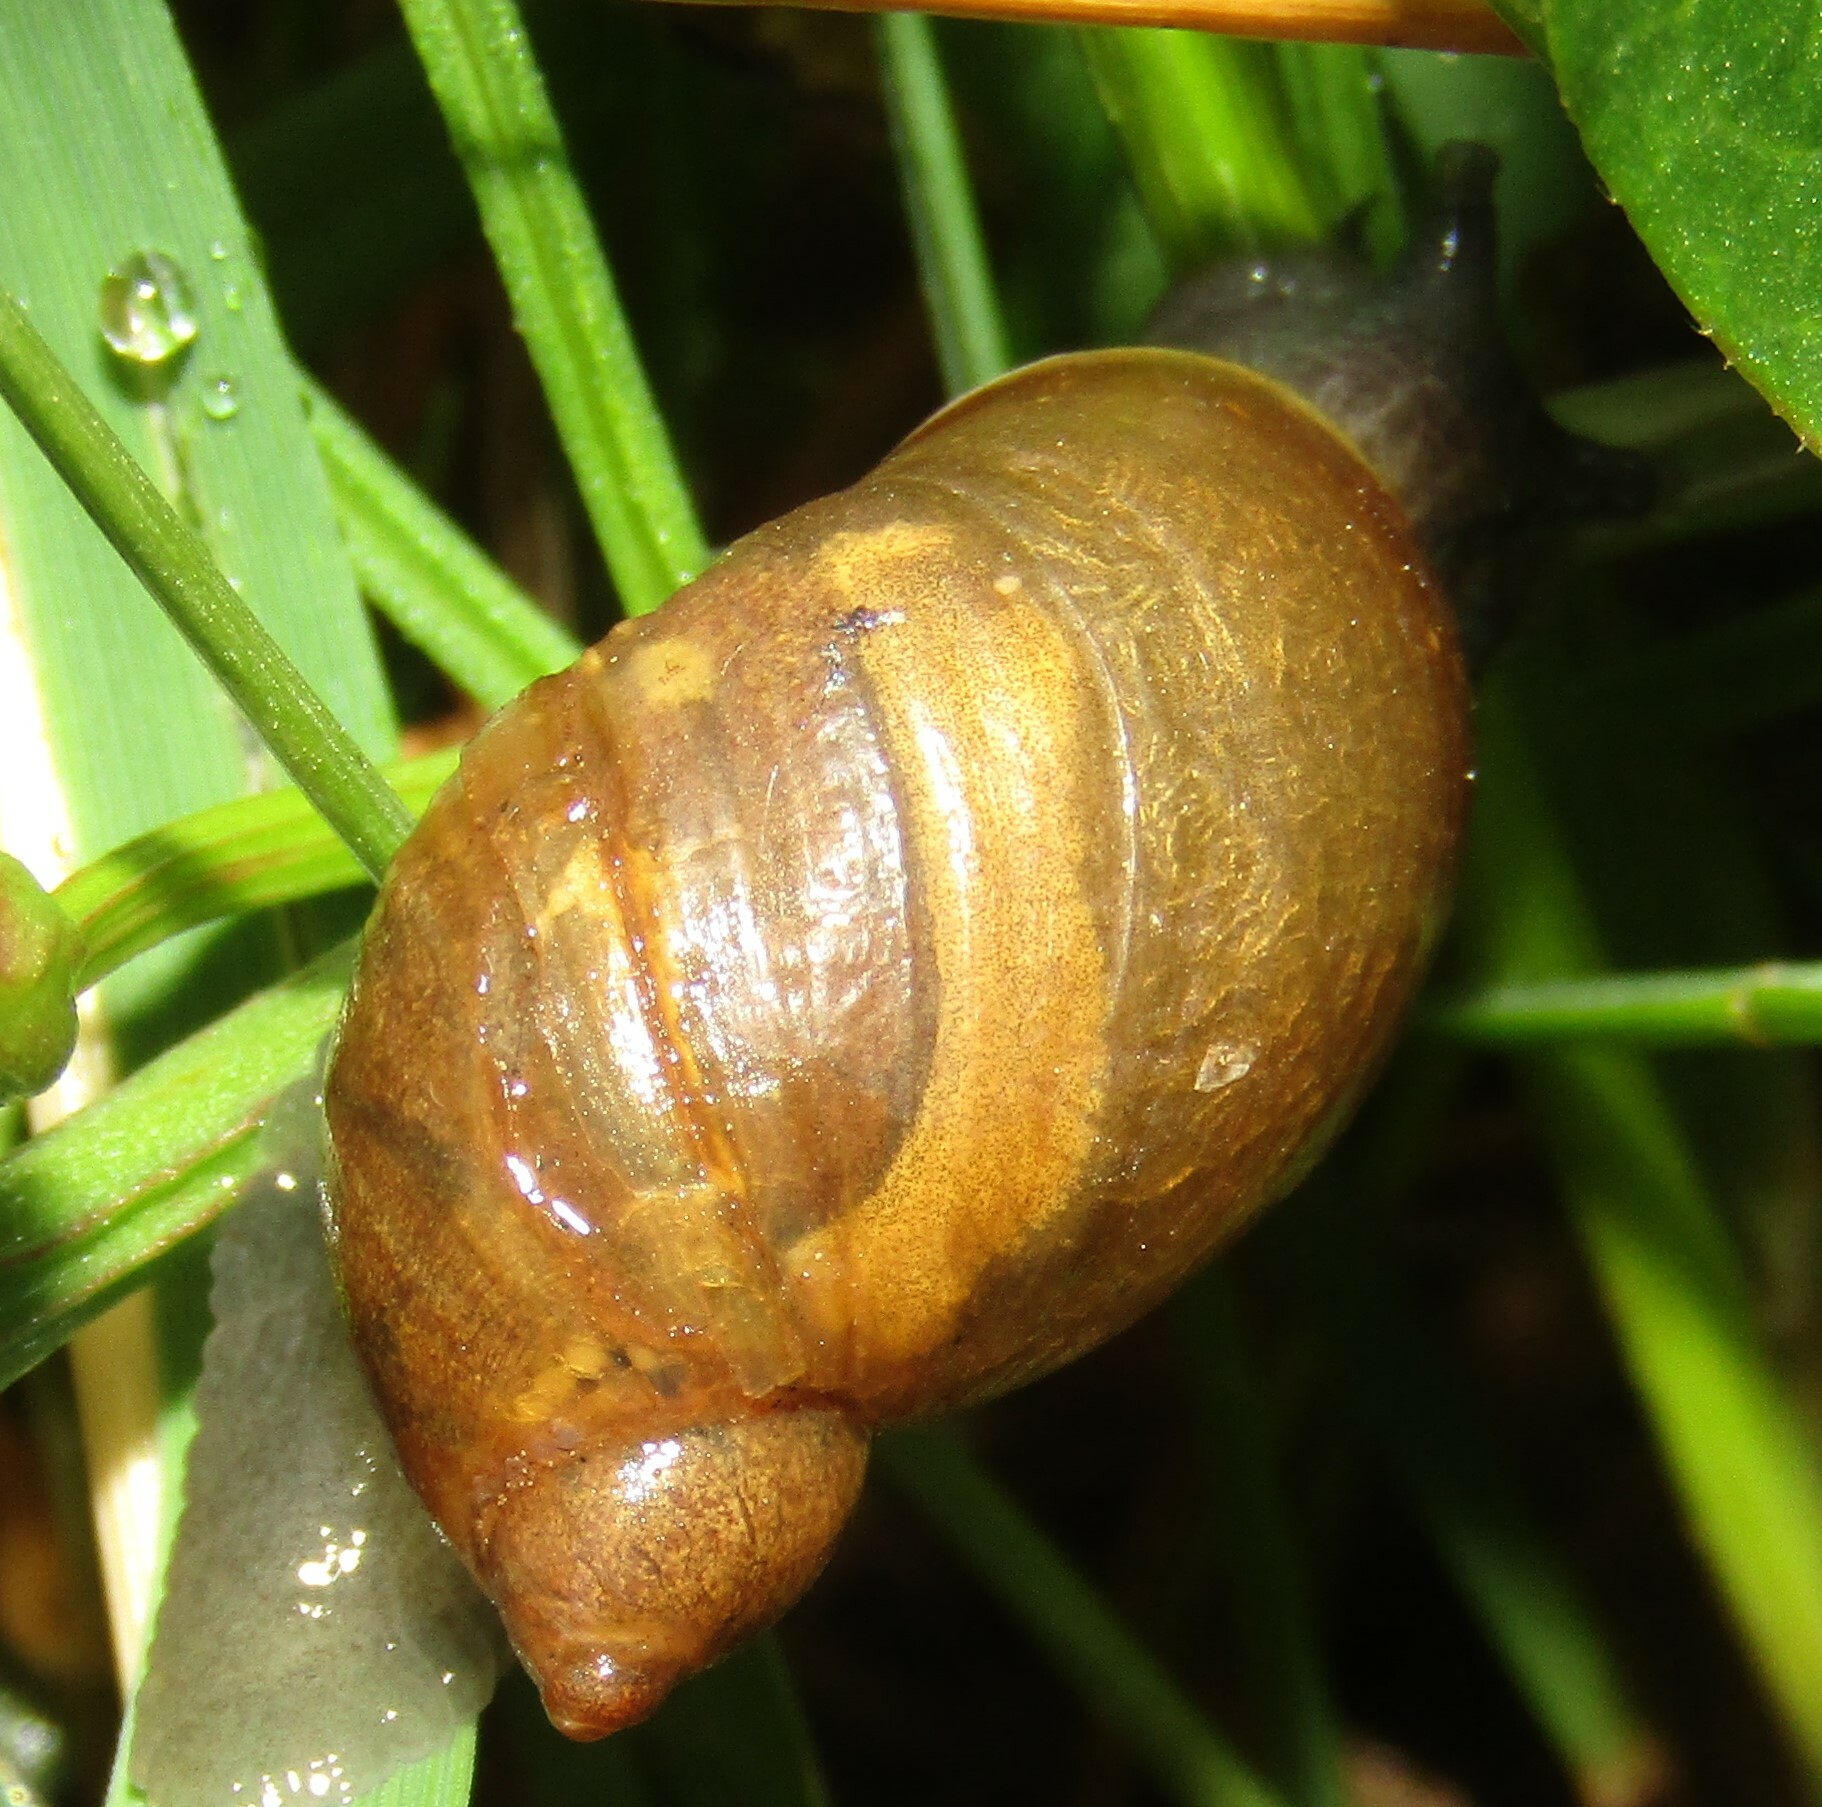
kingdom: Animalia
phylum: Mollusca
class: Gastropoda
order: Stylommatophora
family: Succineidae
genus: Succinea
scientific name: Succinea putris
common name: European ambersnail
